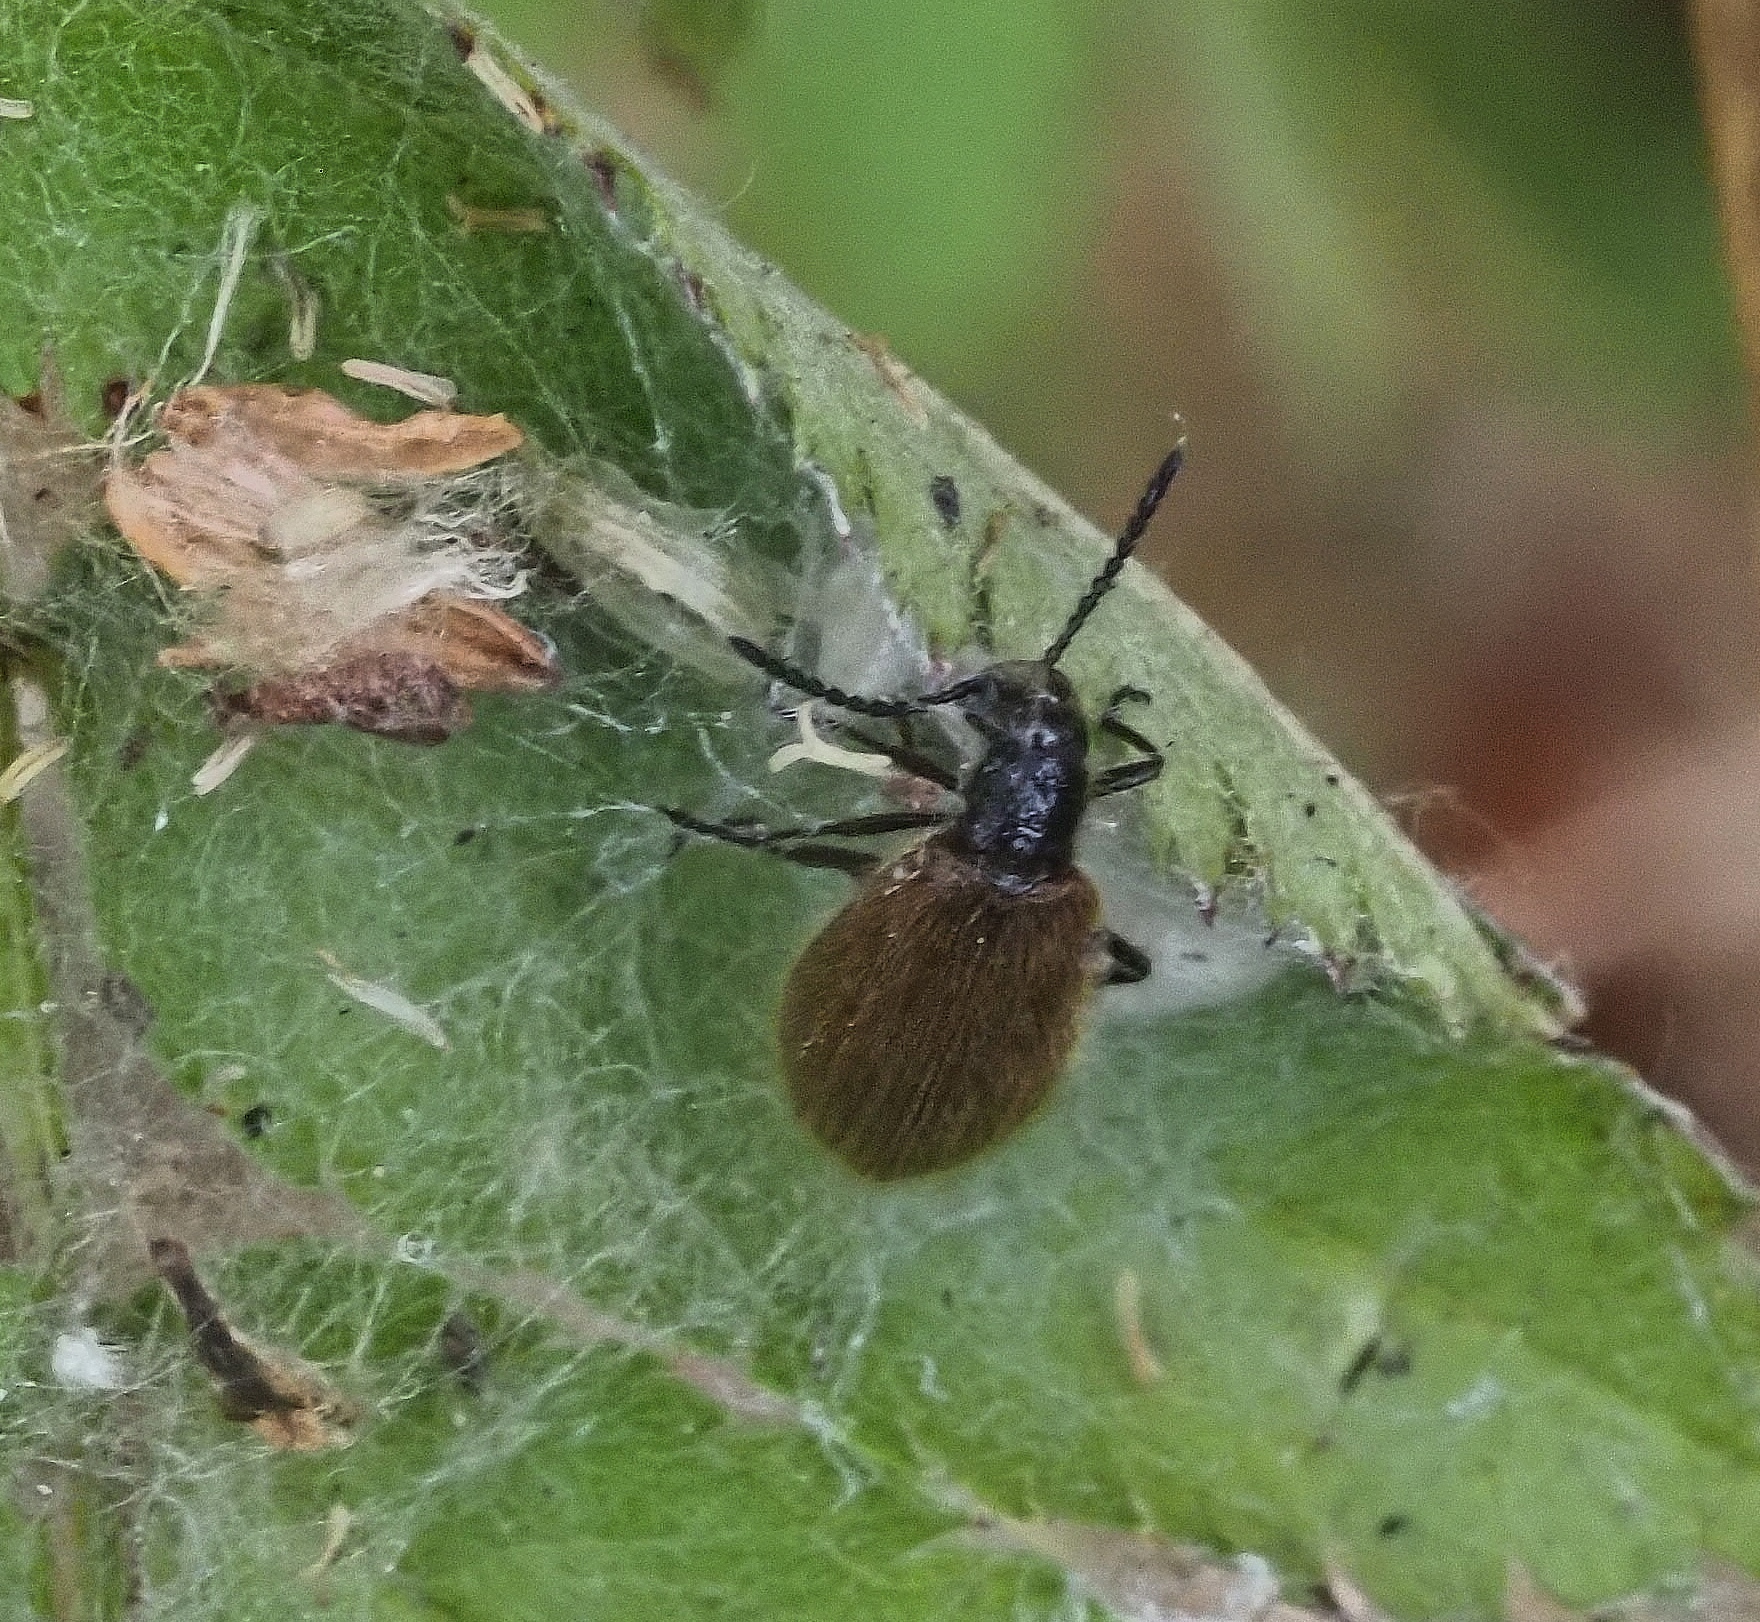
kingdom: Animalia
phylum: Arthropoda
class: Insecta
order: Coleoptera
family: Tenebrionidae
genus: Lagria
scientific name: Lagria hirta
